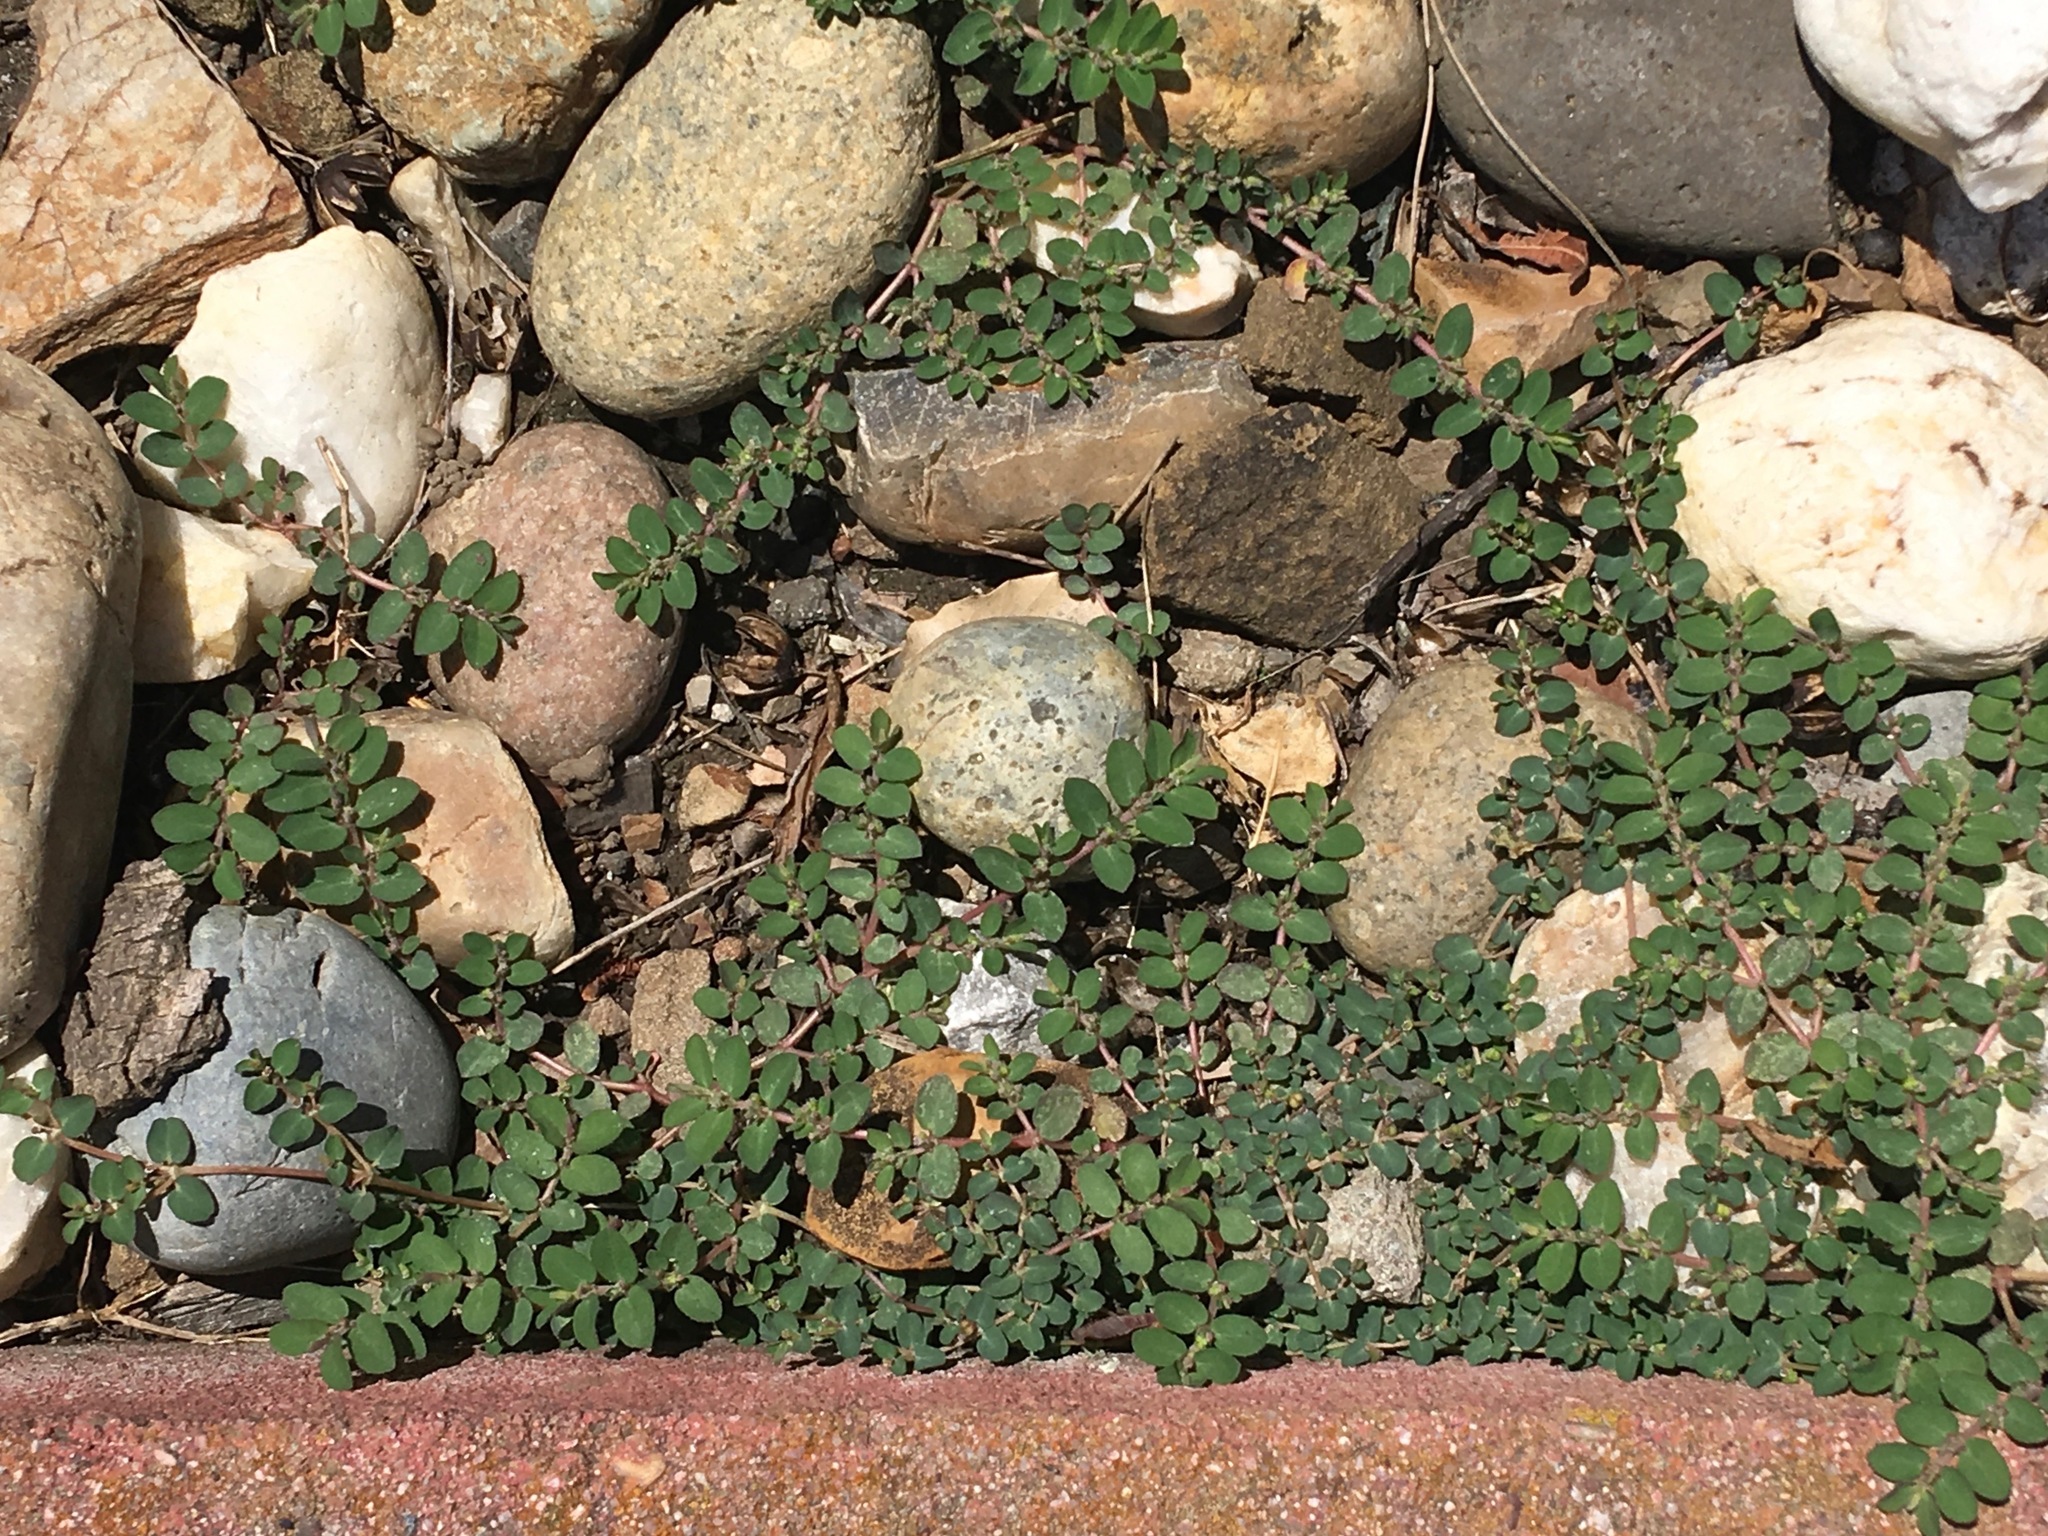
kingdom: Plantae
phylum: Tracheophyta
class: Magnoliopsida
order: Malpighiales
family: Euphorbiaceae
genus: Euphorbia
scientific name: Euphorbia prostrata
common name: Prostrate sandmat
